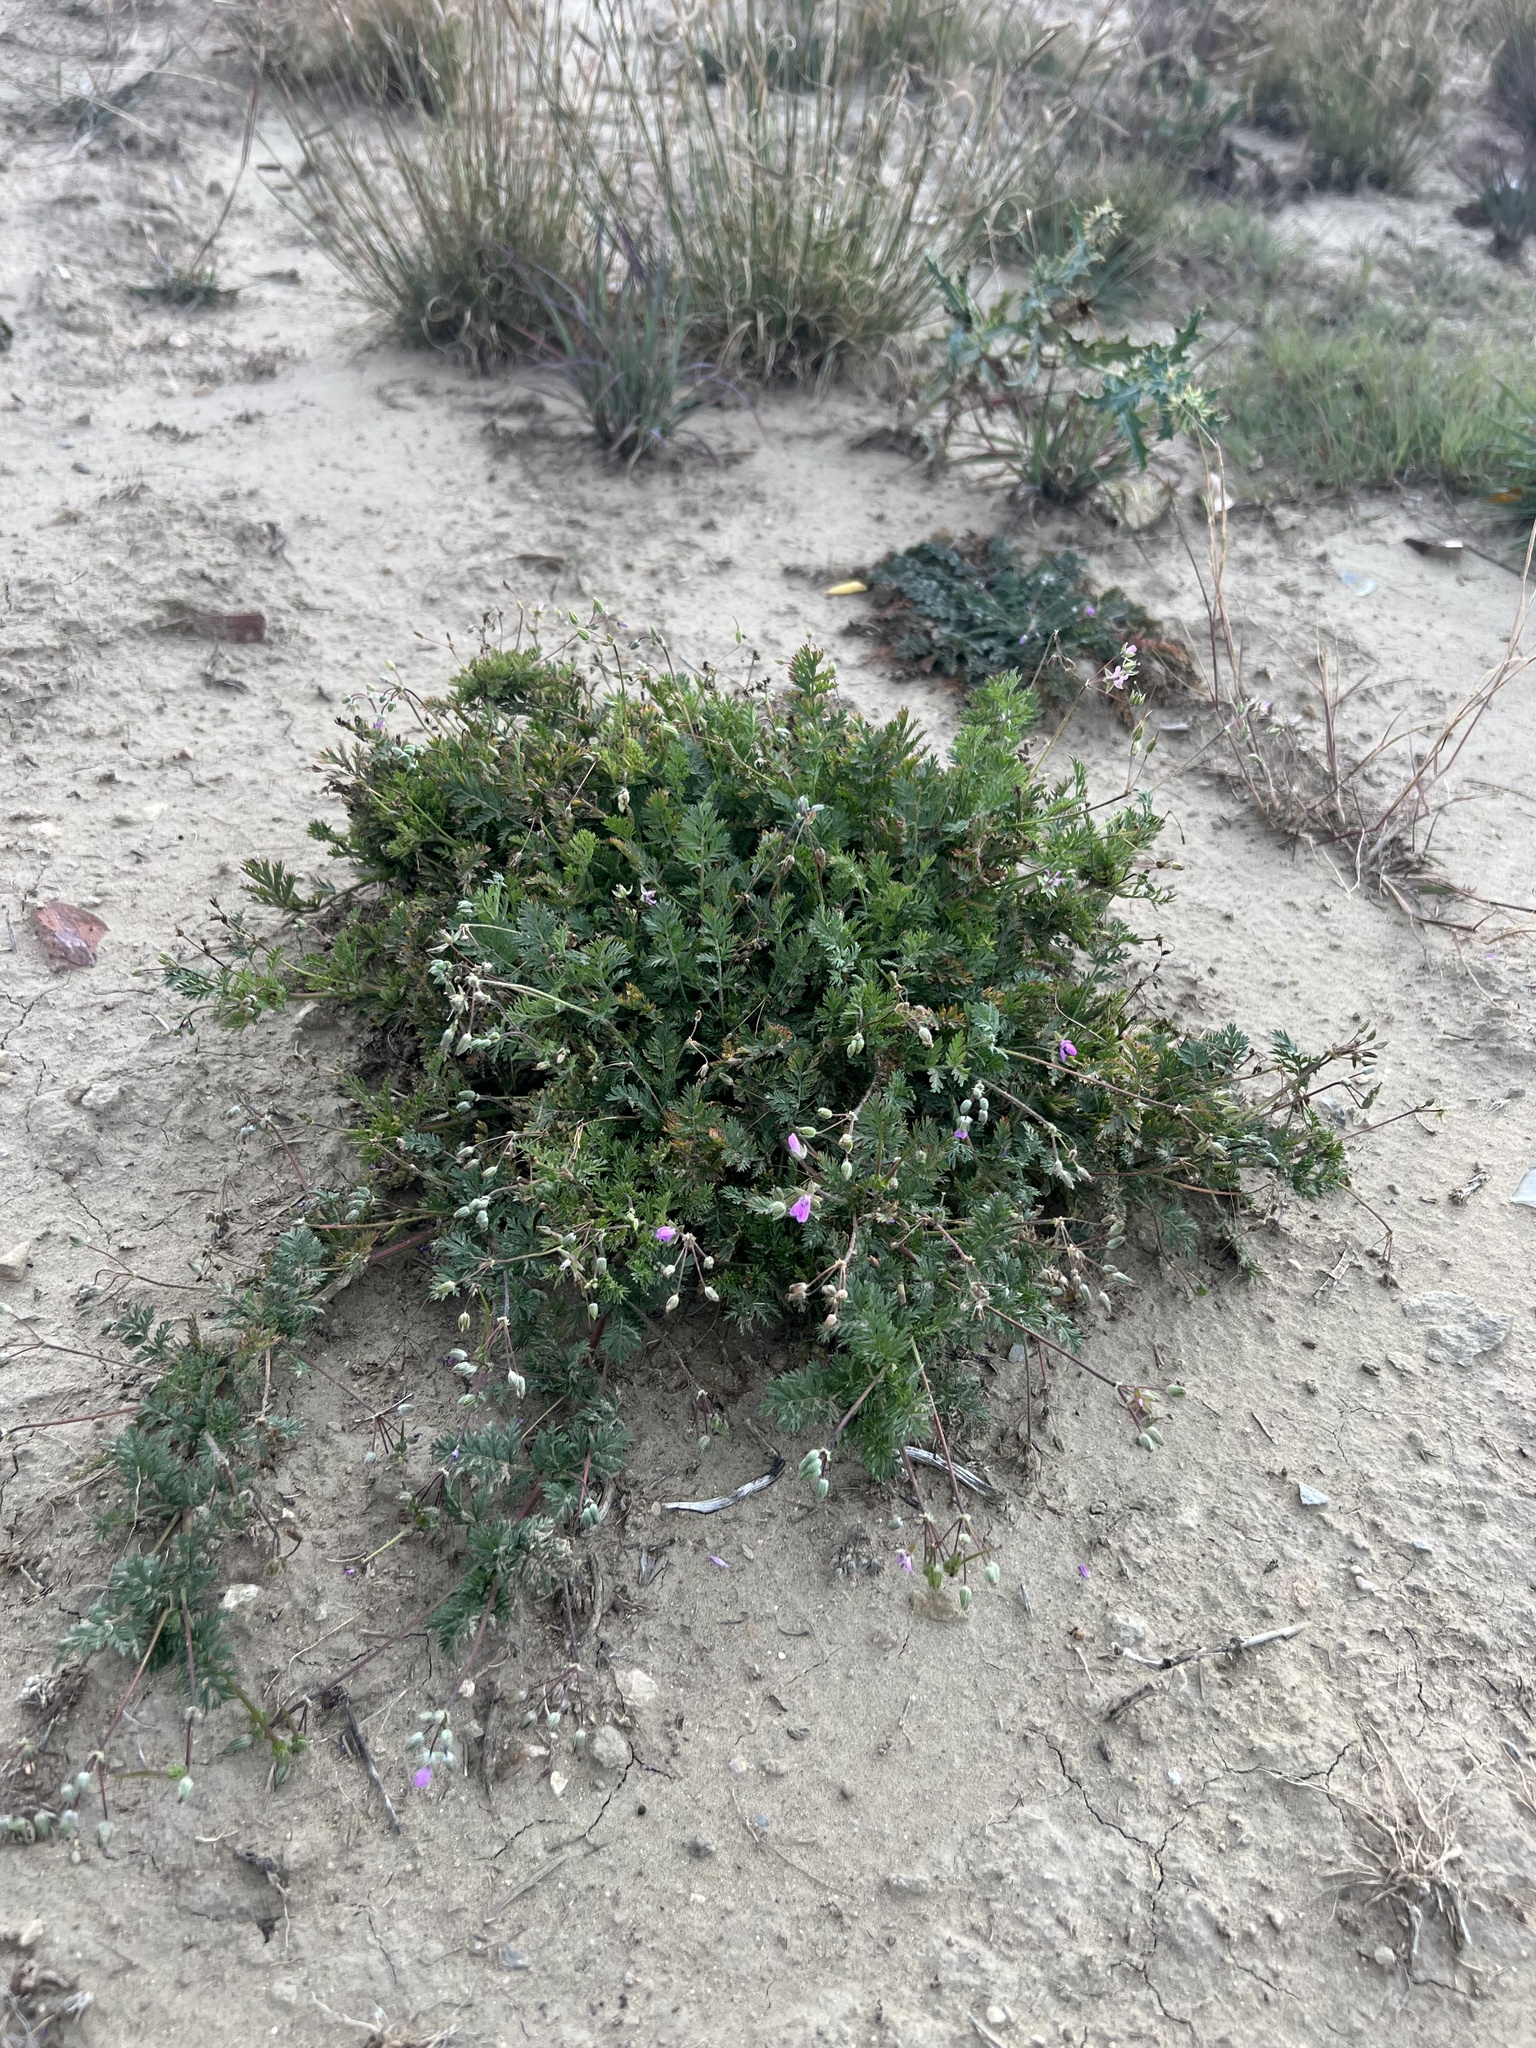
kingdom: Plantae
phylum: Tracheophyta
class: Magnoliopsida
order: Geraniales
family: Geraniaceae
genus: Erodium
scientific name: Erodium cicutarium
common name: Common stork's-bill
